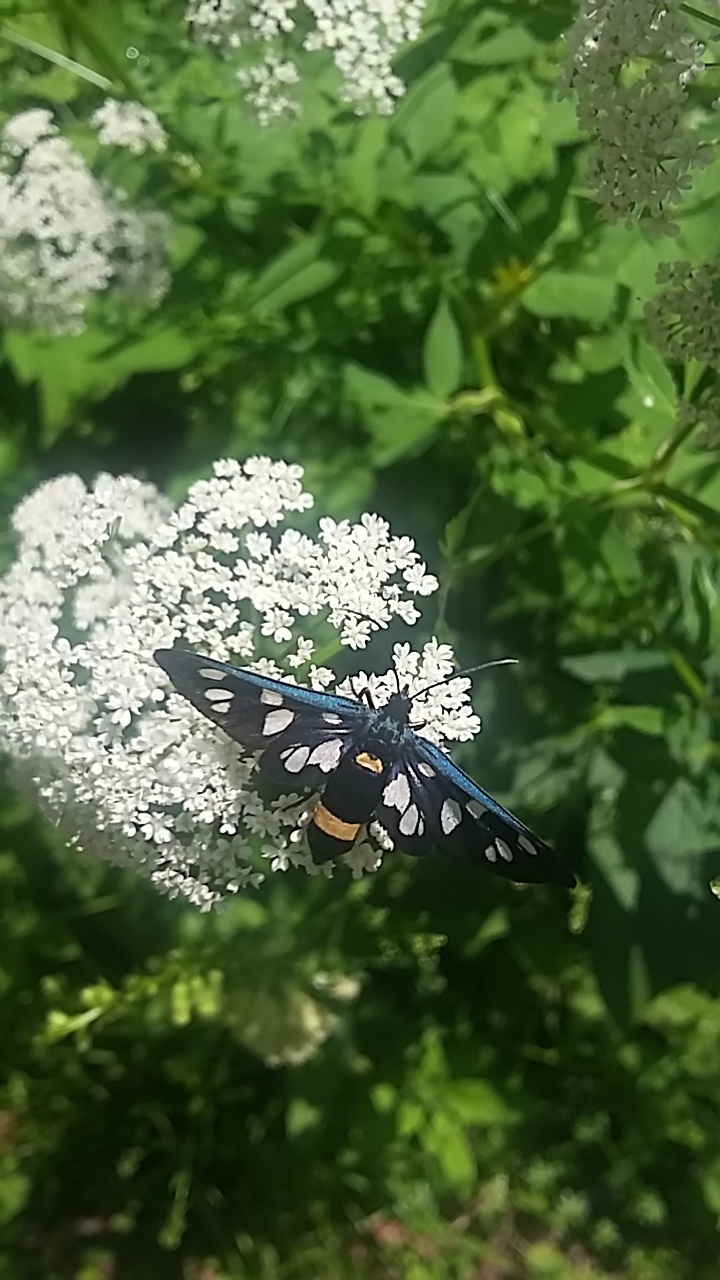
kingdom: Animalia
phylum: Arthropoda
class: Insecta
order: Lepidoptera
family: Erebidae
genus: Amata
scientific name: Amata phegea
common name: Nine-spotted
